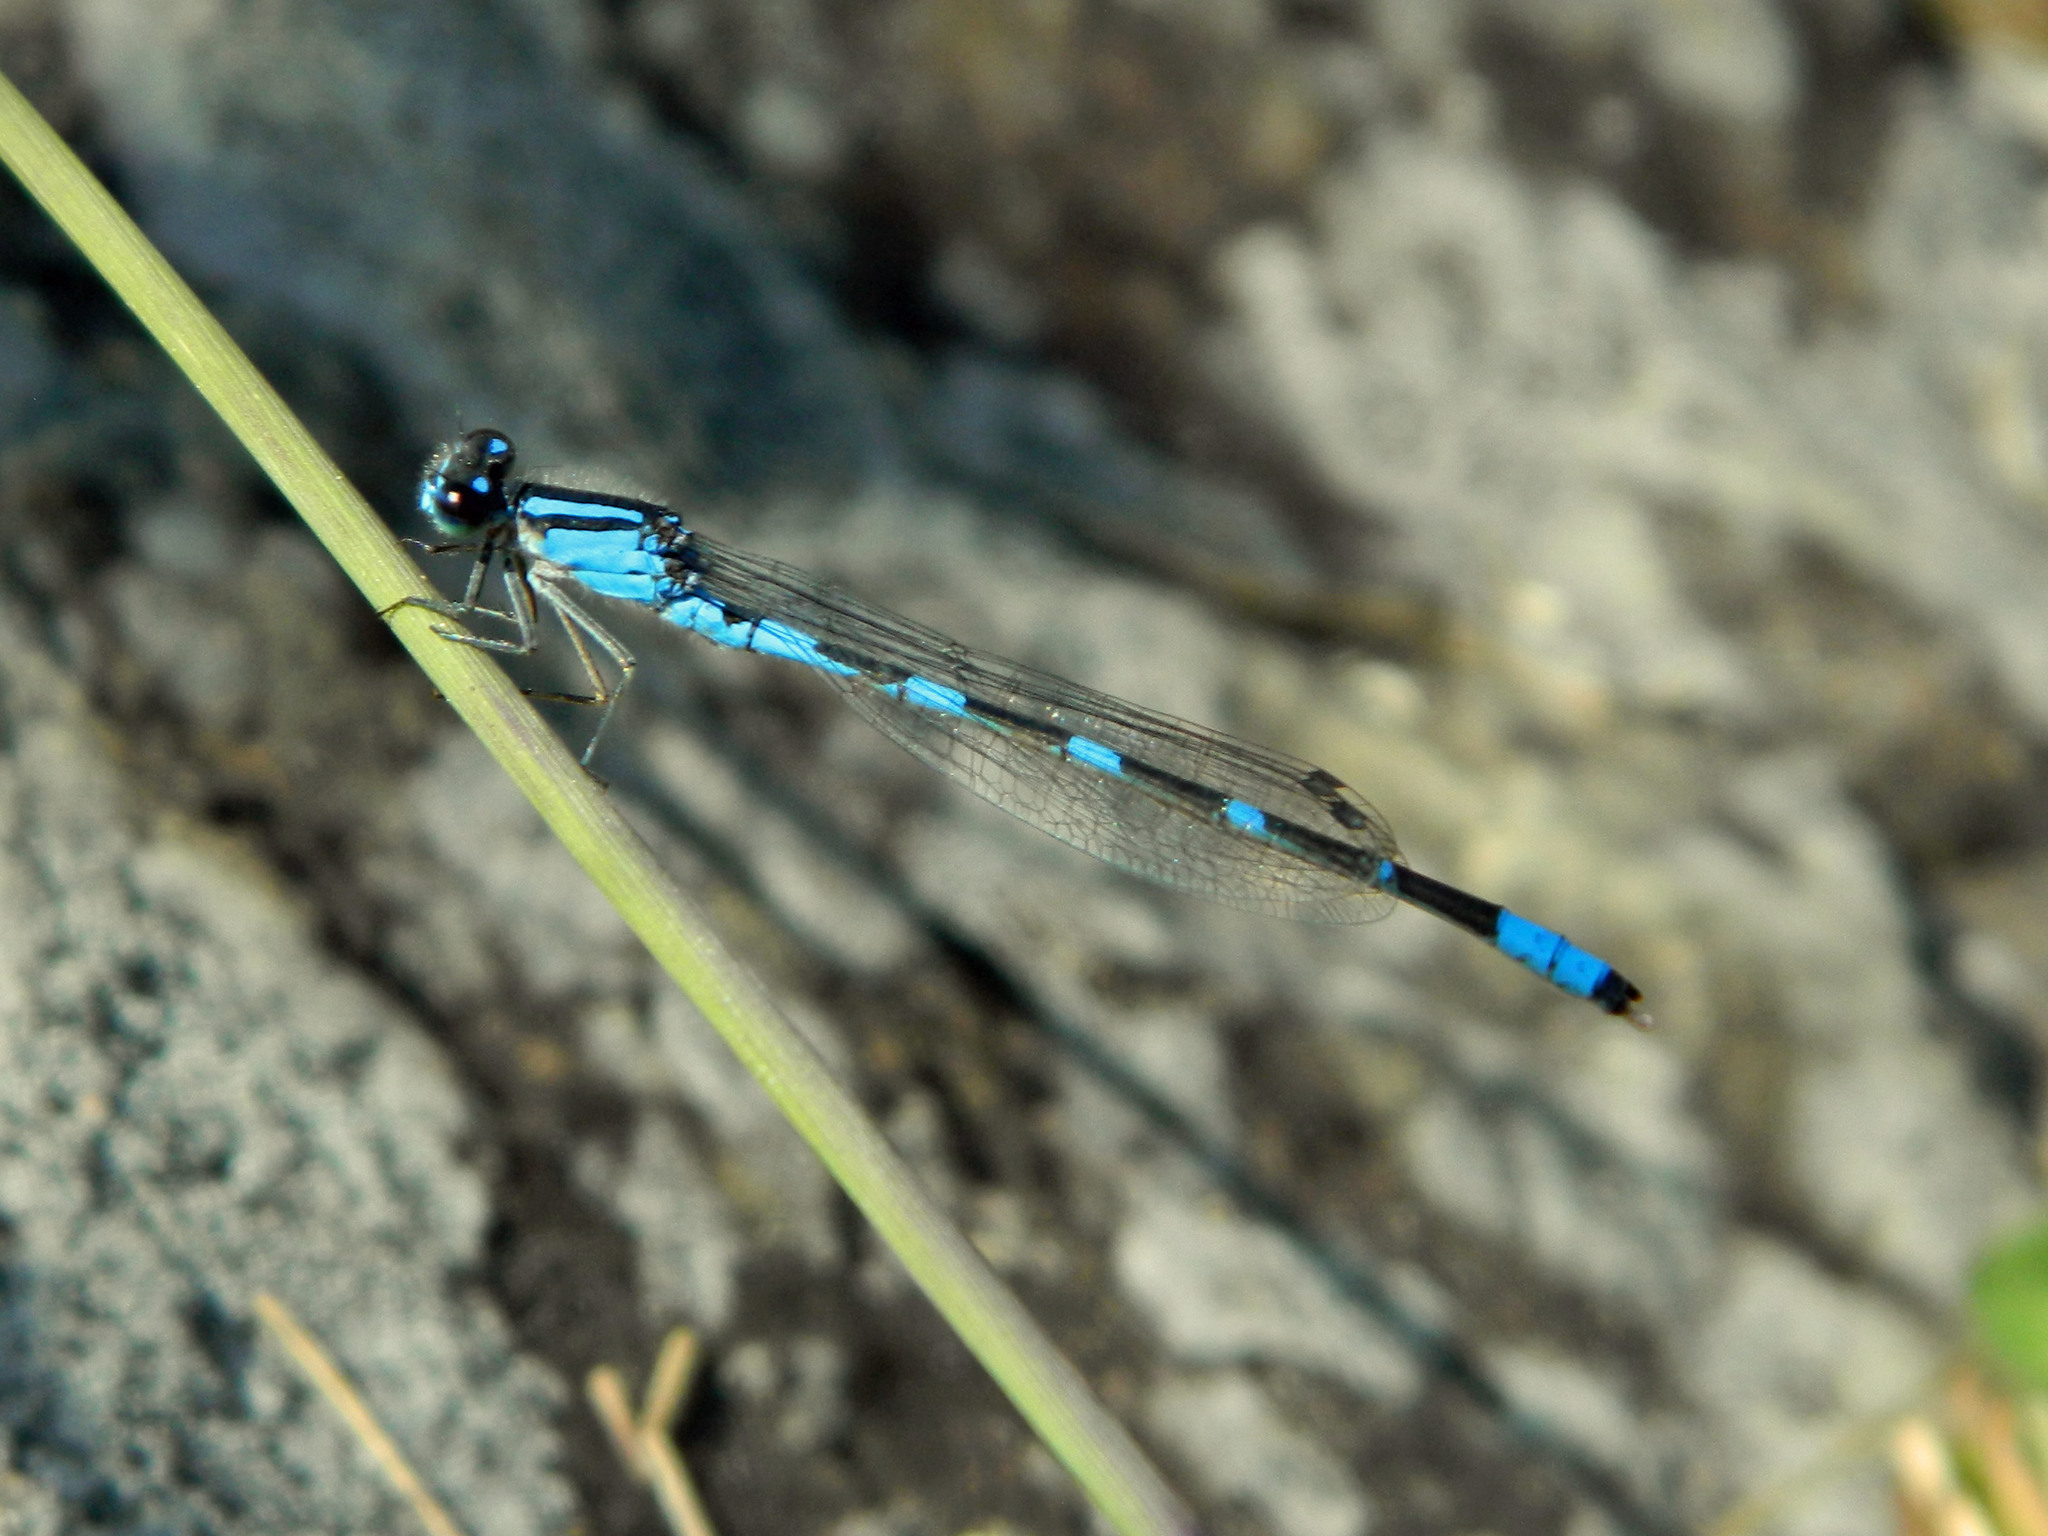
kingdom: Animalia
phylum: Arthropoda
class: Insecta
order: Odonata
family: Coenagrionidae
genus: Enallagma
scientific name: Enallagma carunculatum
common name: Tule bluet
